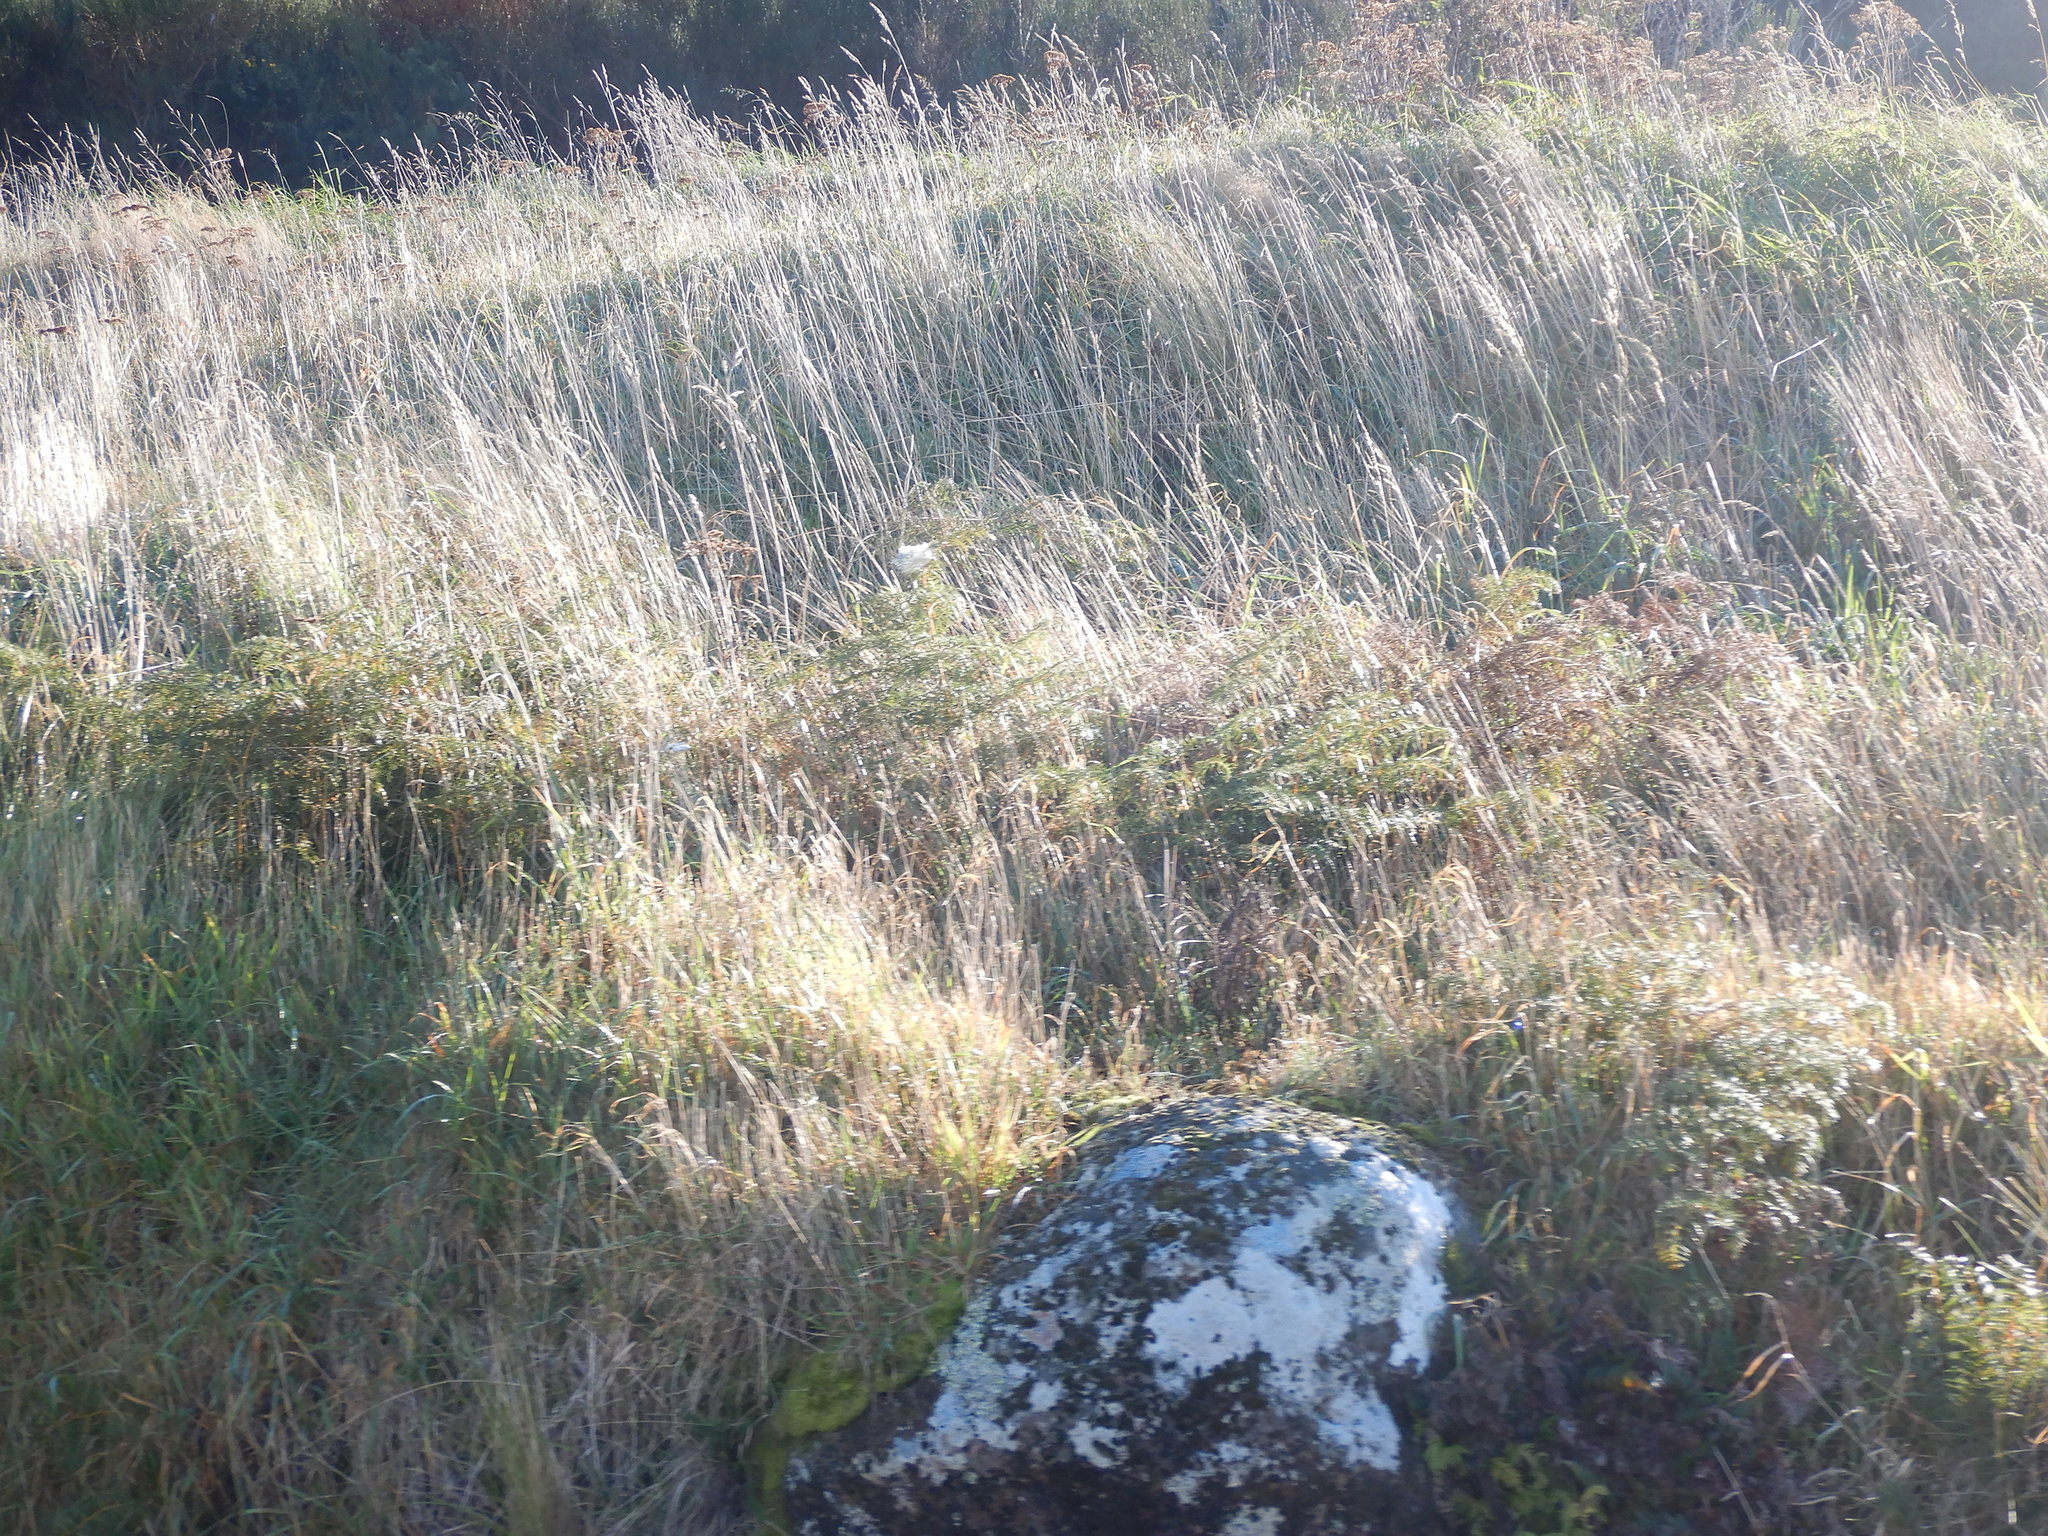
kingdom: Plantae
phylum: Tracheophyta
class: Polypodiopsida
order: Polypodiales
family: Dennstaedtiaceae
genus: Pteridium
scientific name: Pteridium esculentum
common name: Bracken fern
